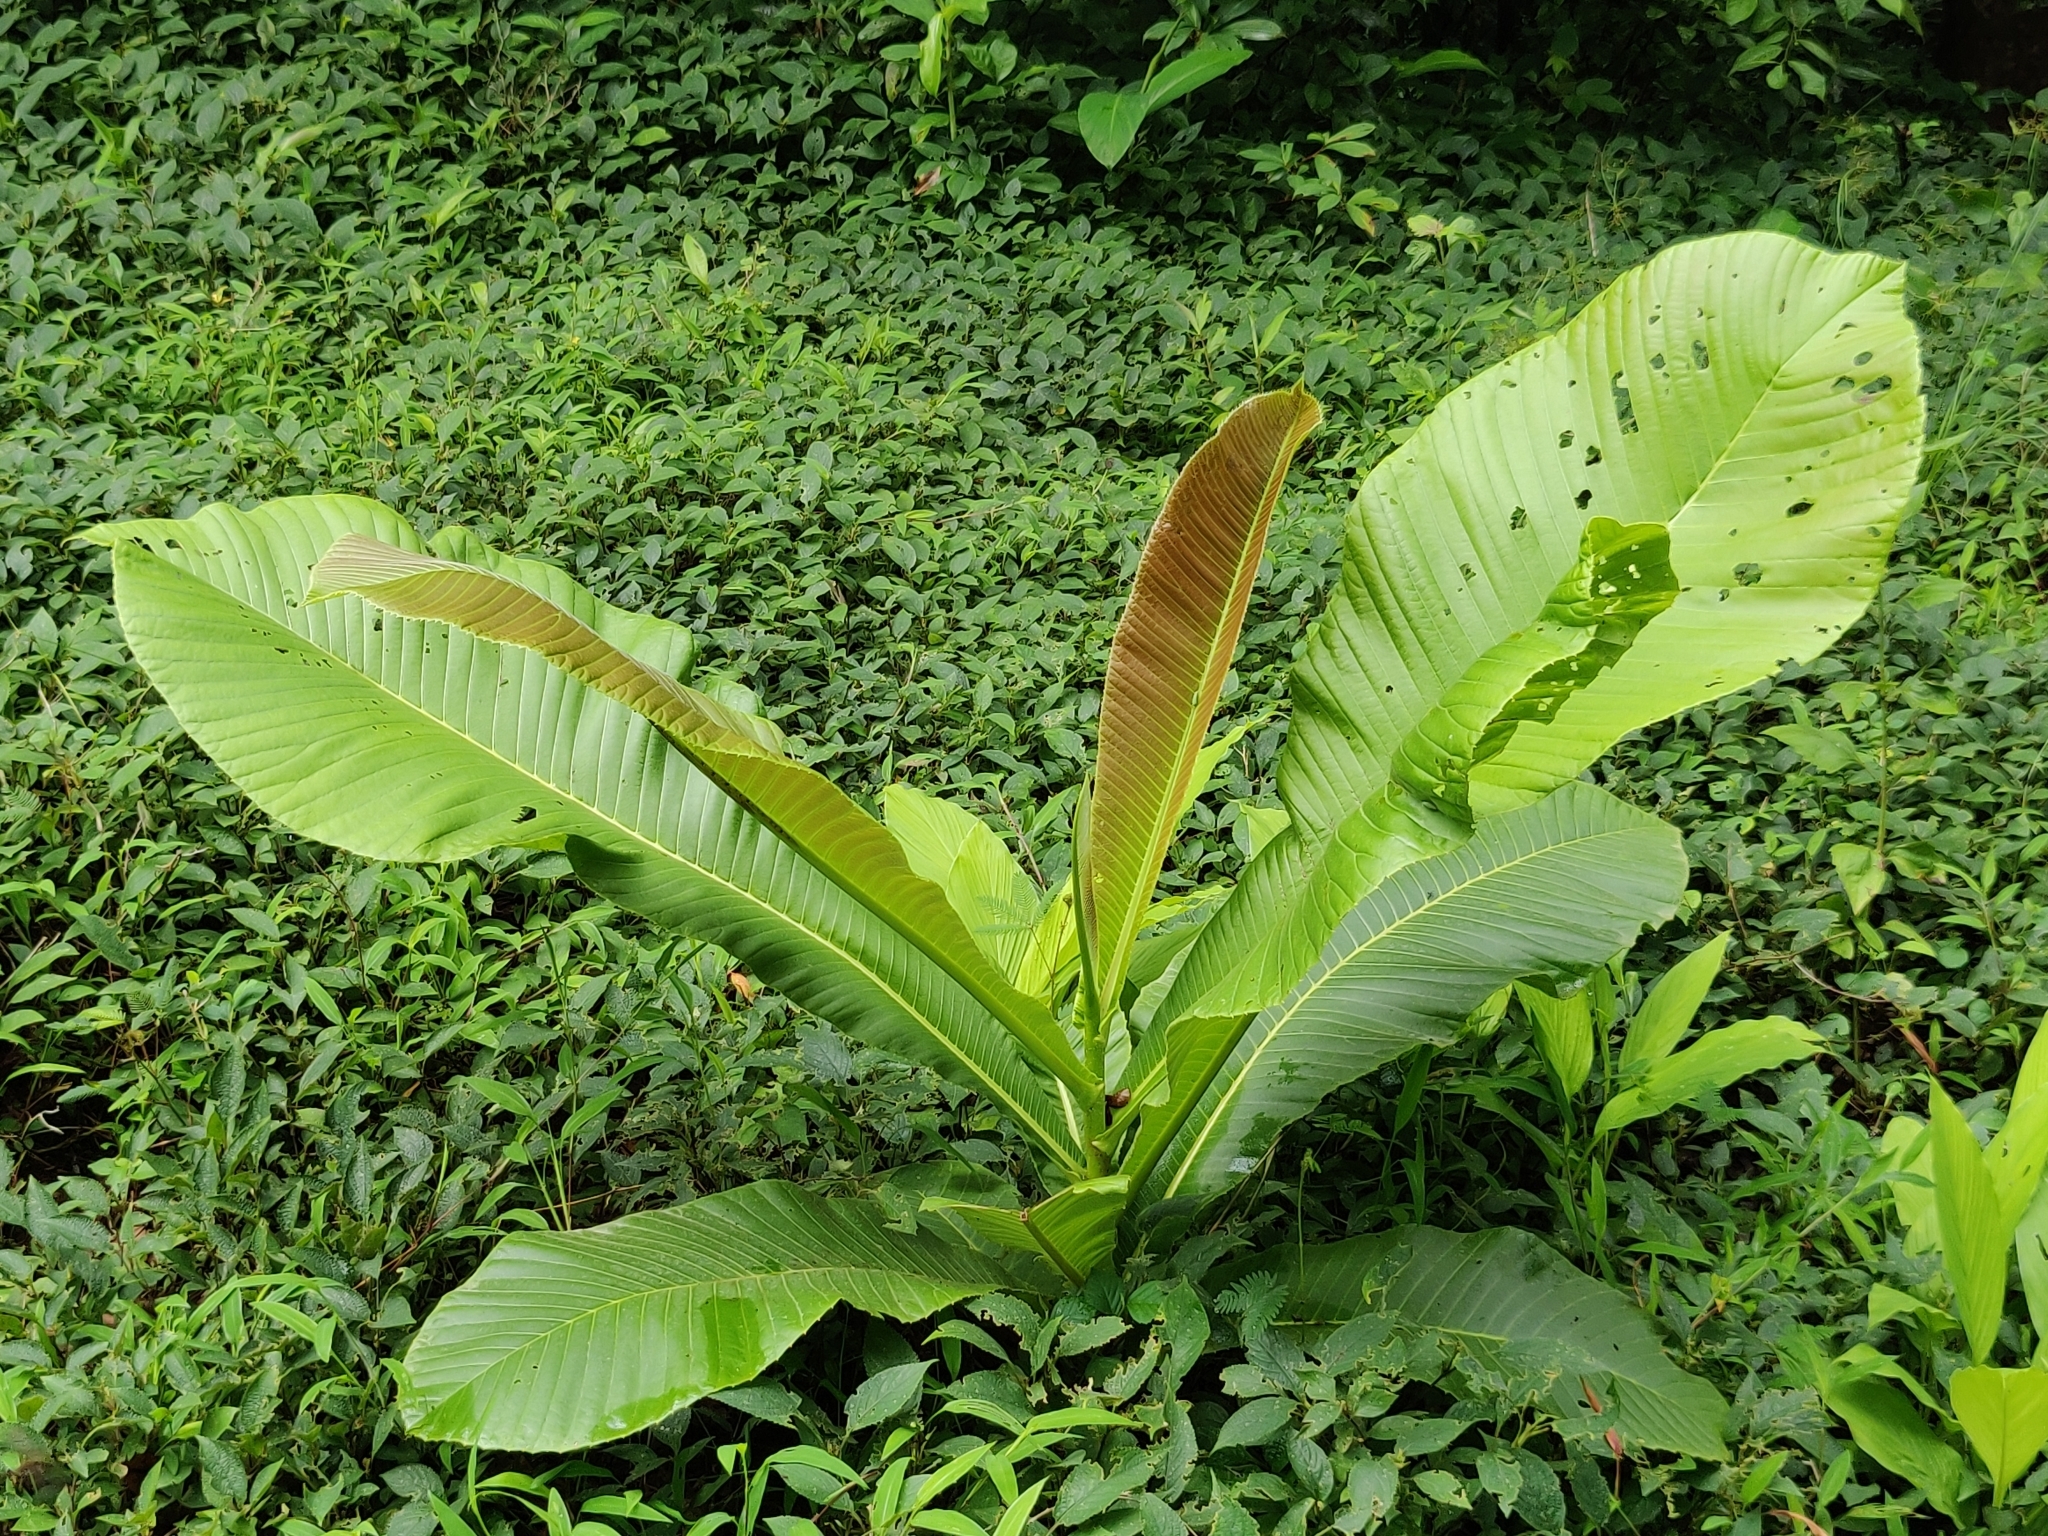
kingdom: Plantae
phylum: Tracheophyta
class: Magnoliopsida
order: Dilleniales
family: Dilleniaceae
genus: Dillenia
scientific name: Dillenia pentagyna
